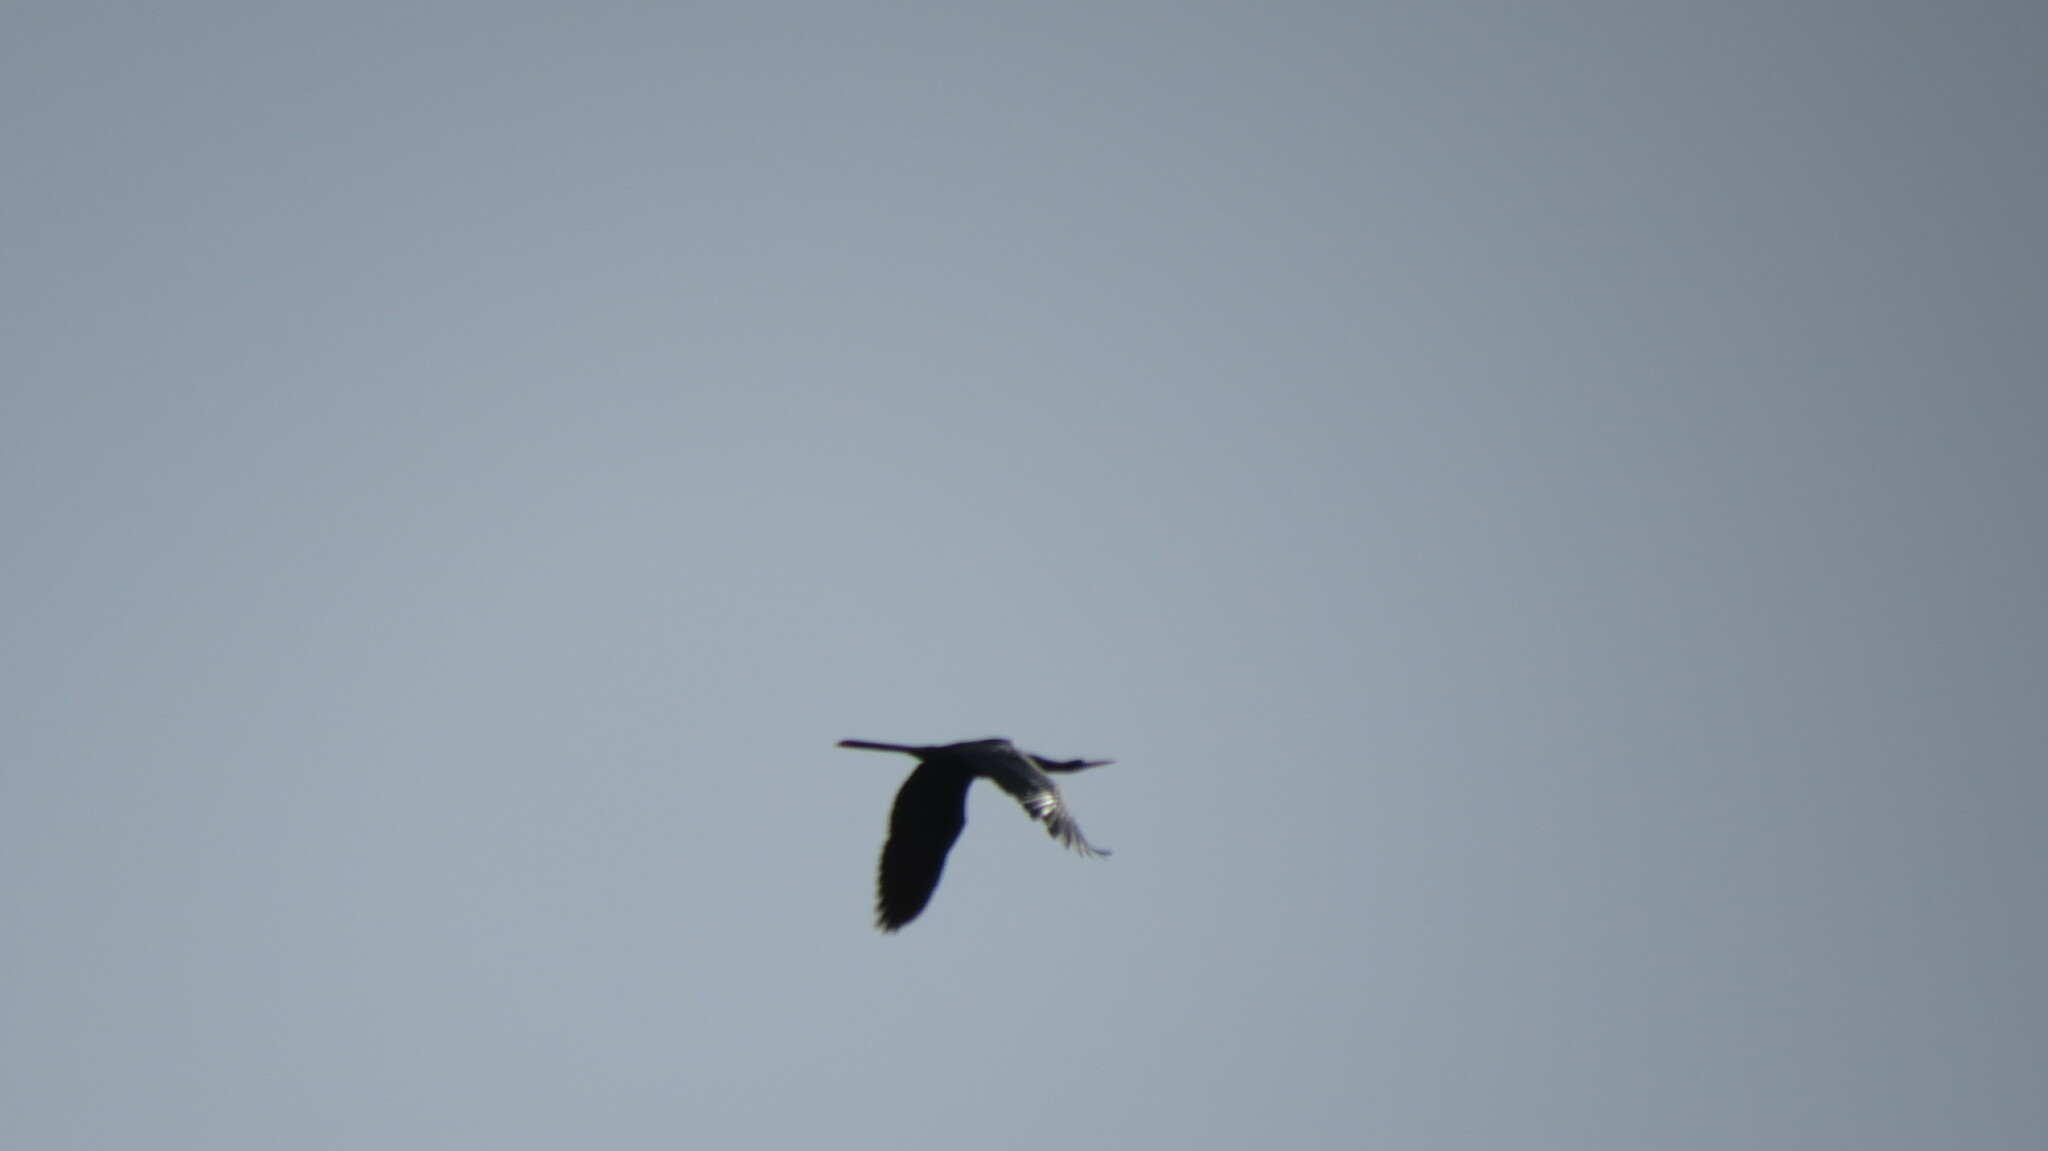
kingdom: Animalia
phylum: Chordata
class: Aves
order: Suliformes
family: Anhingidae
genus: Anhinga
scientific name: Anhinga anhinga
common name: Anhinga
